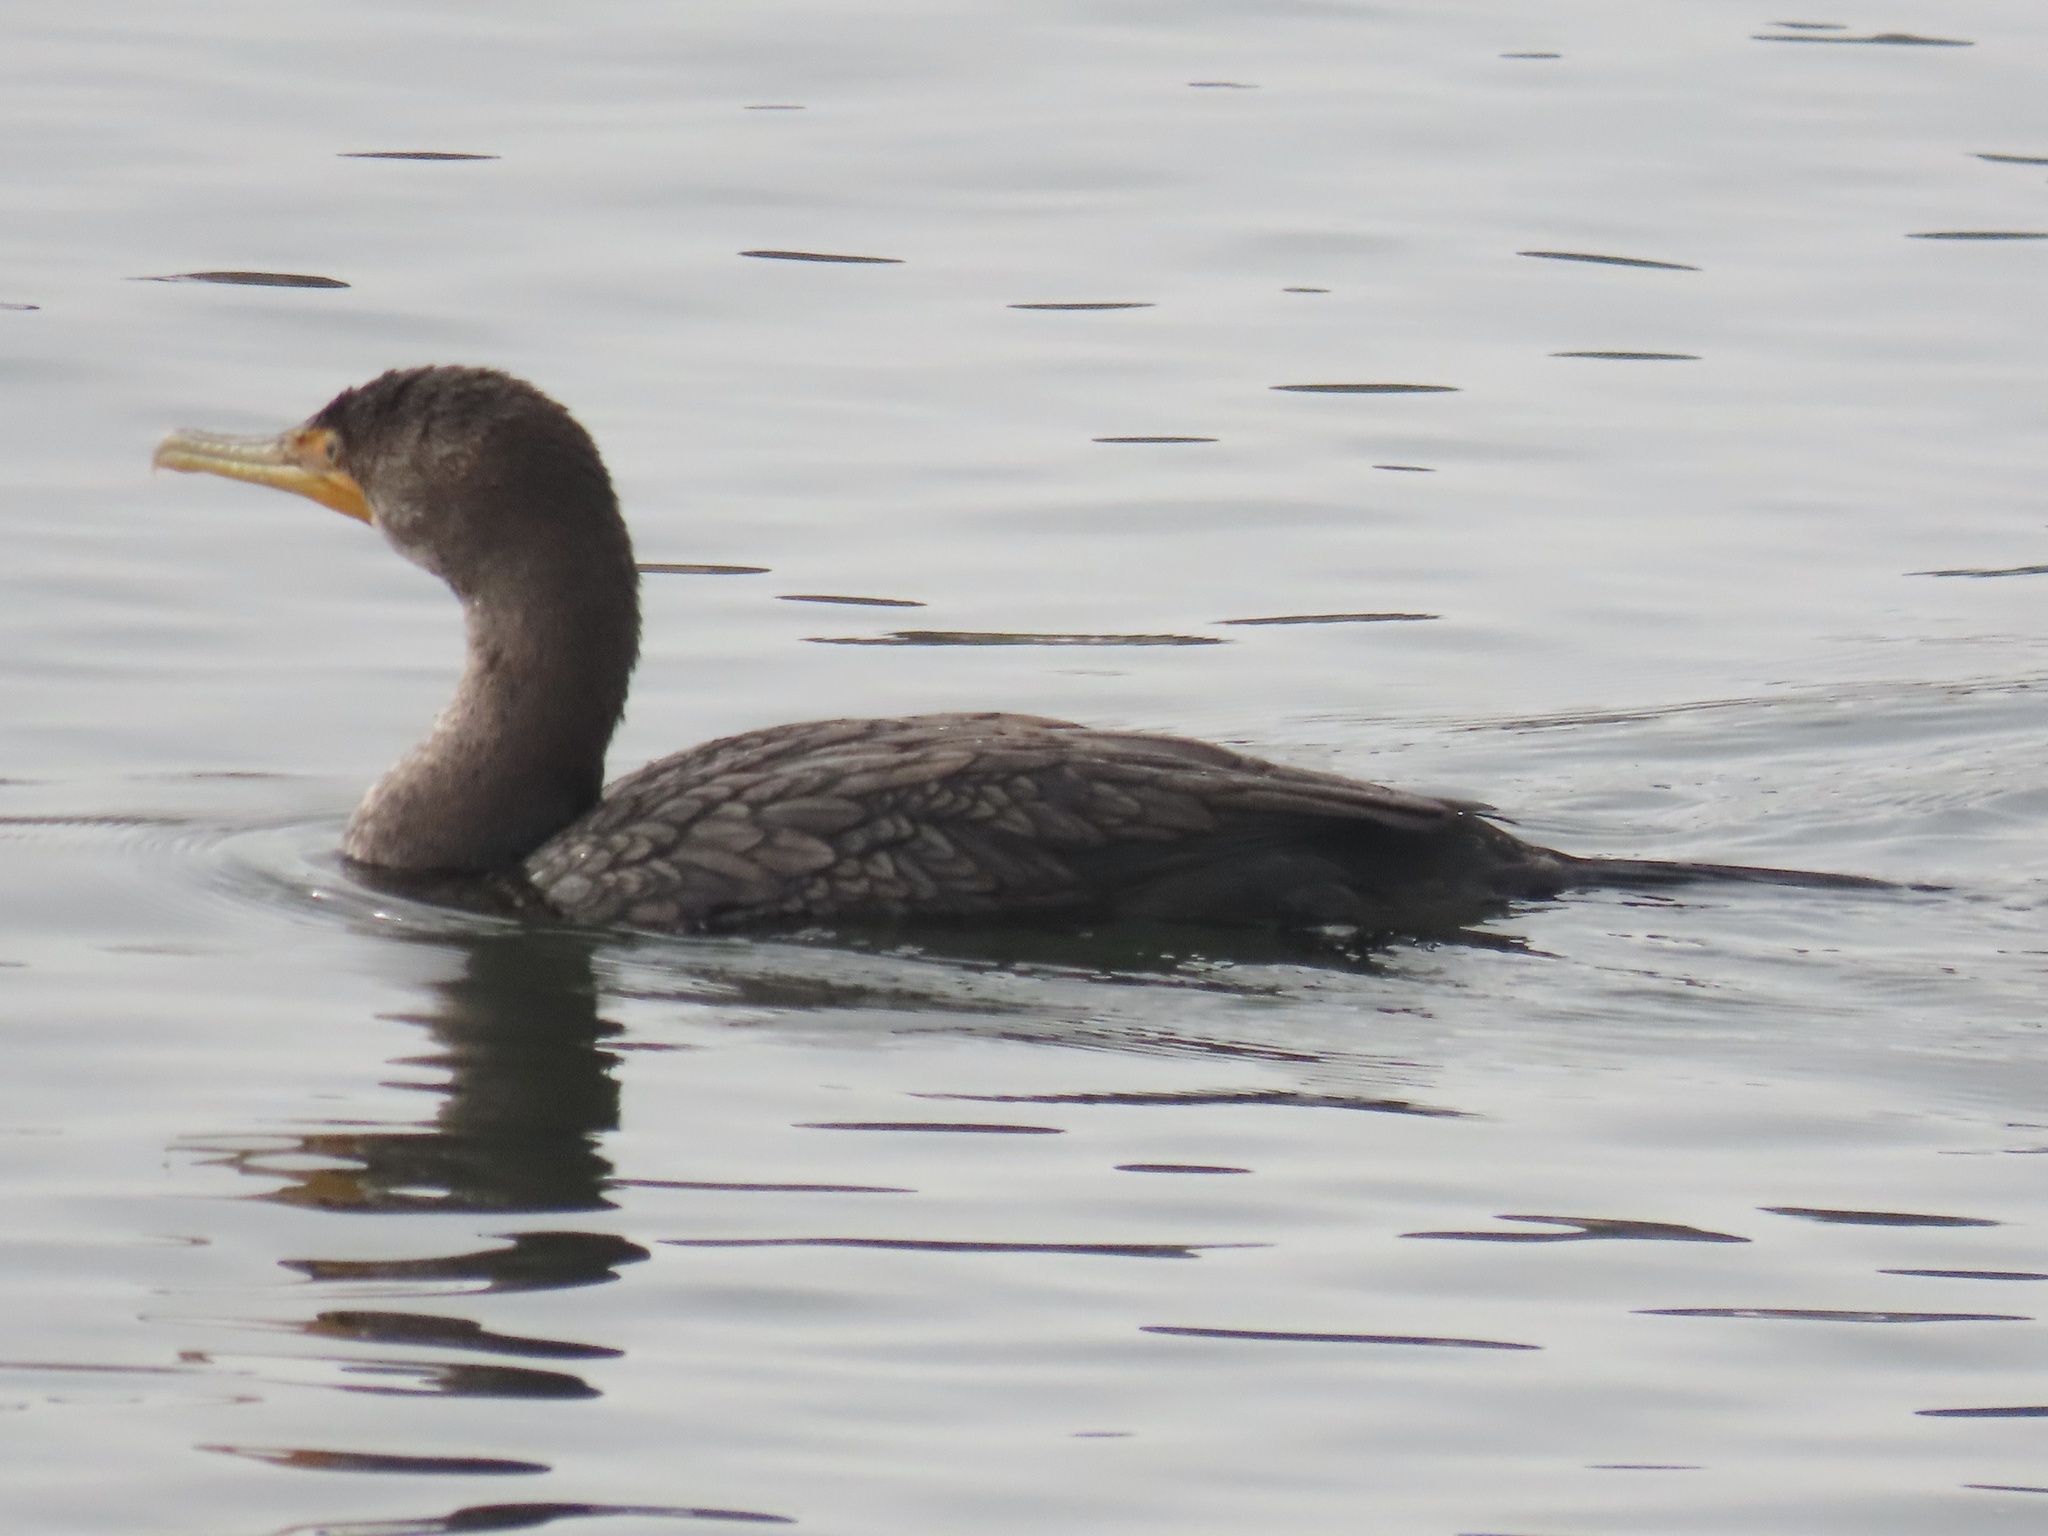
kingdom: Animalia
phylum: Chordata
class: Aves
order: Suliformes
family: Phalacrocoracidae
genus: Phalacrocorax
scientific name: Phalacrocorax auritus
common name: Double-crested cormorant
